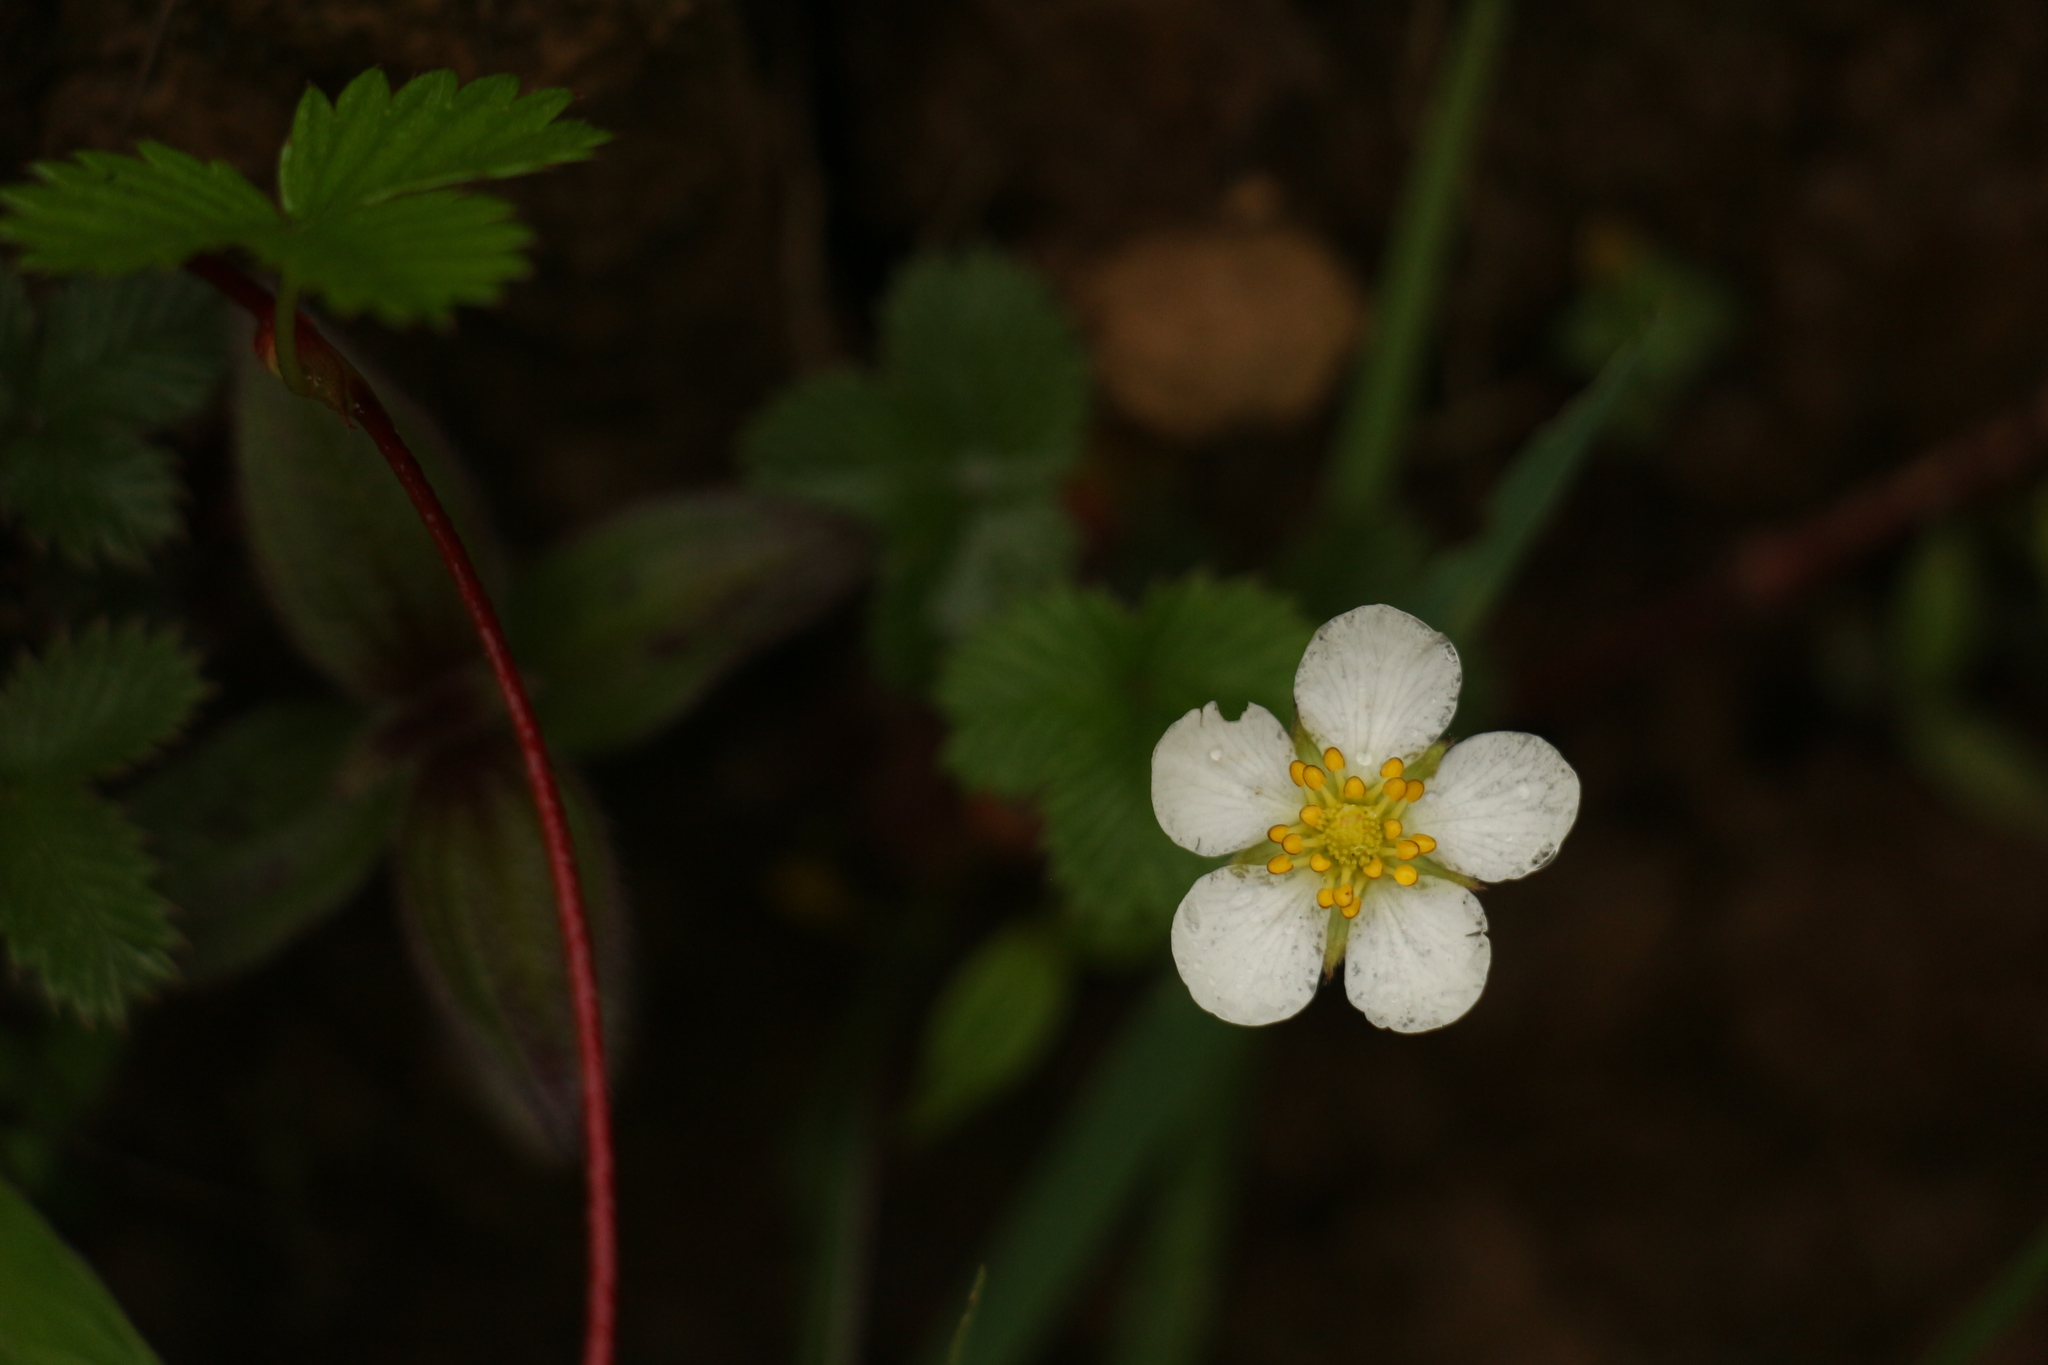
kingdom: Plantae
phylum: Tracheophyta
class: Magnoliopsida
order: Rosales
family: Rosaceae
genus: Fragaria
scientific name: Fragaria nubicola
